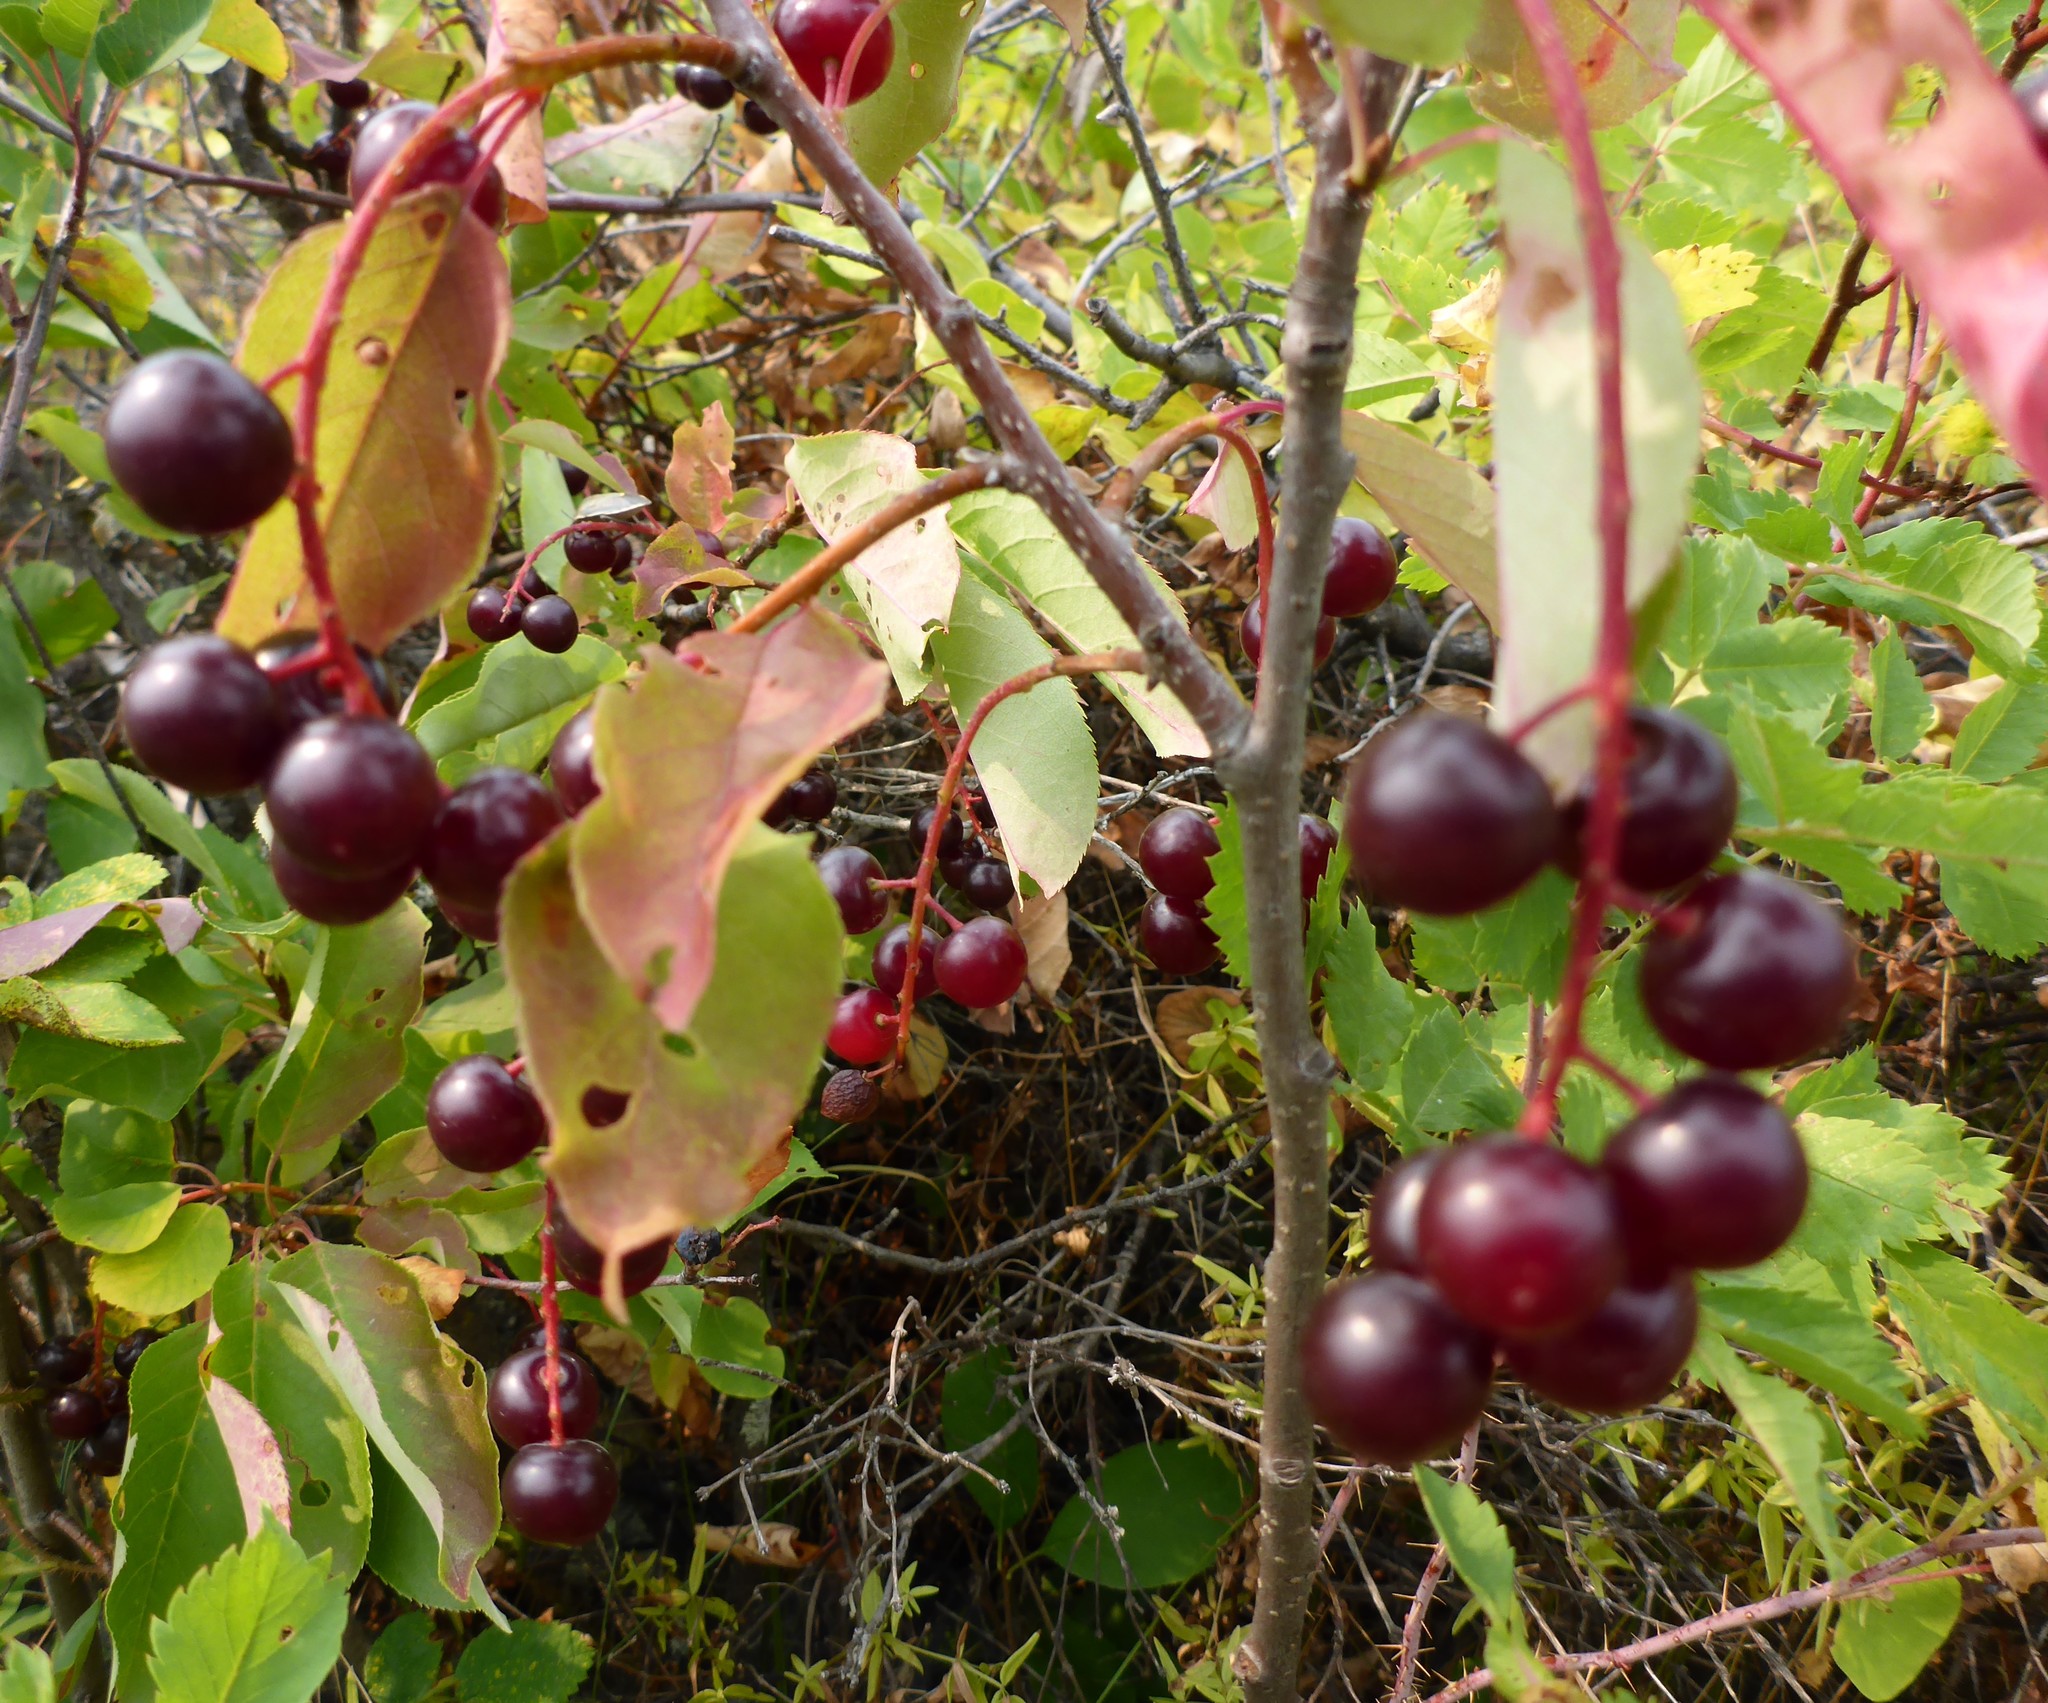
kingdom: Plantae
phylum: Tracheophyta
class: Magnoliopsida
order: Rosales
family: Rosaceae
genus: Prunus
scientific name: Prunus virginiana
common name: Chokecherry
